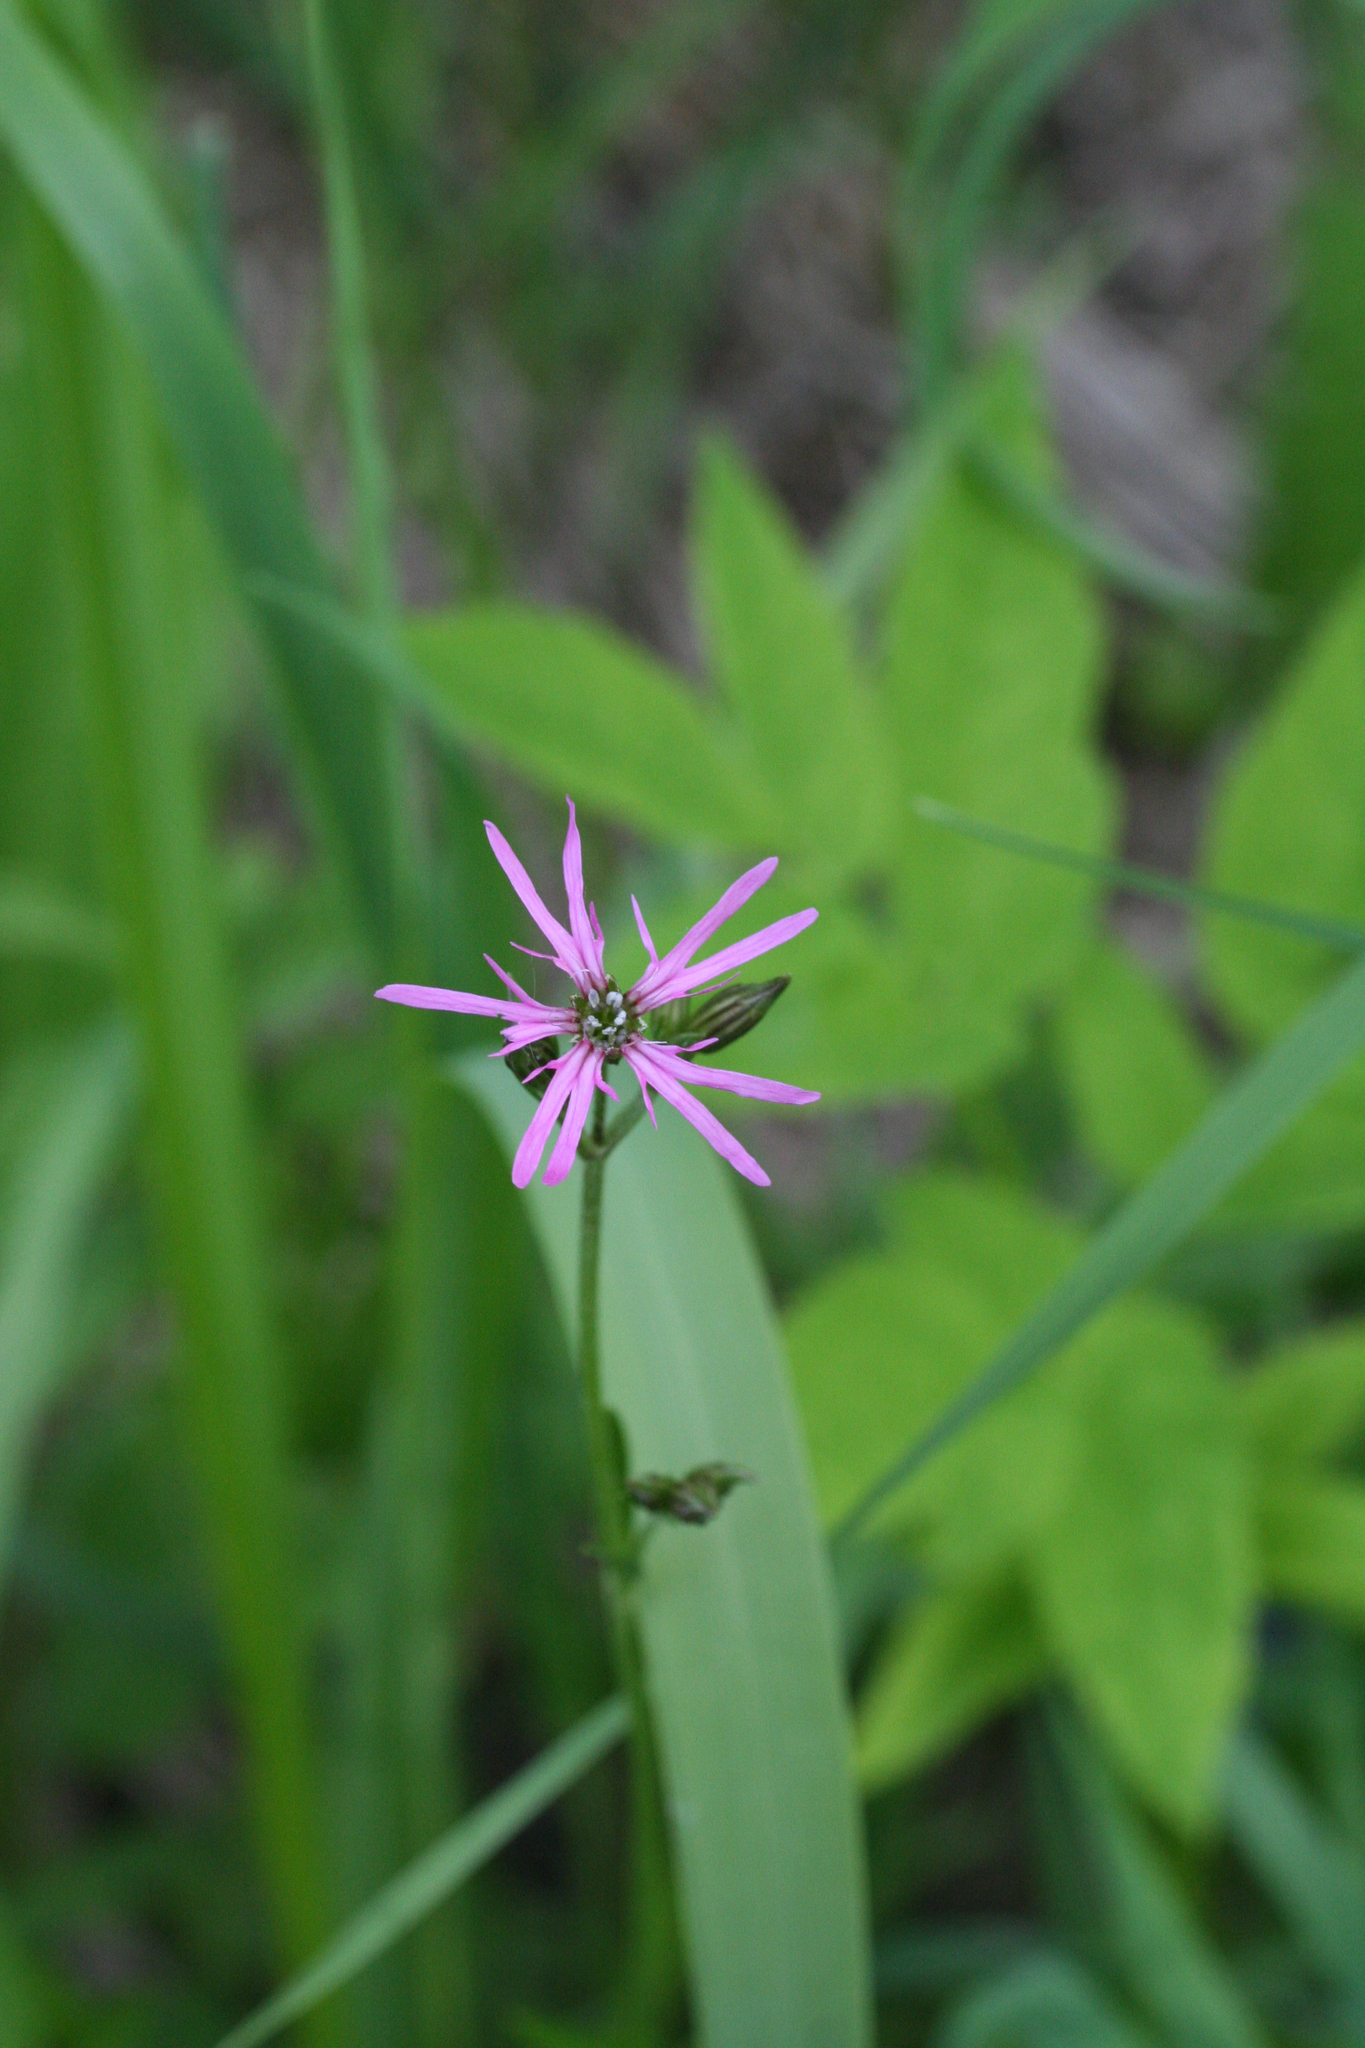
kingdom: Plantae
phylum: Tracheophyta
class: Magnoliopsida
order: Caryophyllales
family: Caryophyllaceae
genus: Silene
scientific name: Silene flos-cuculi
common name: Ragged-robin
